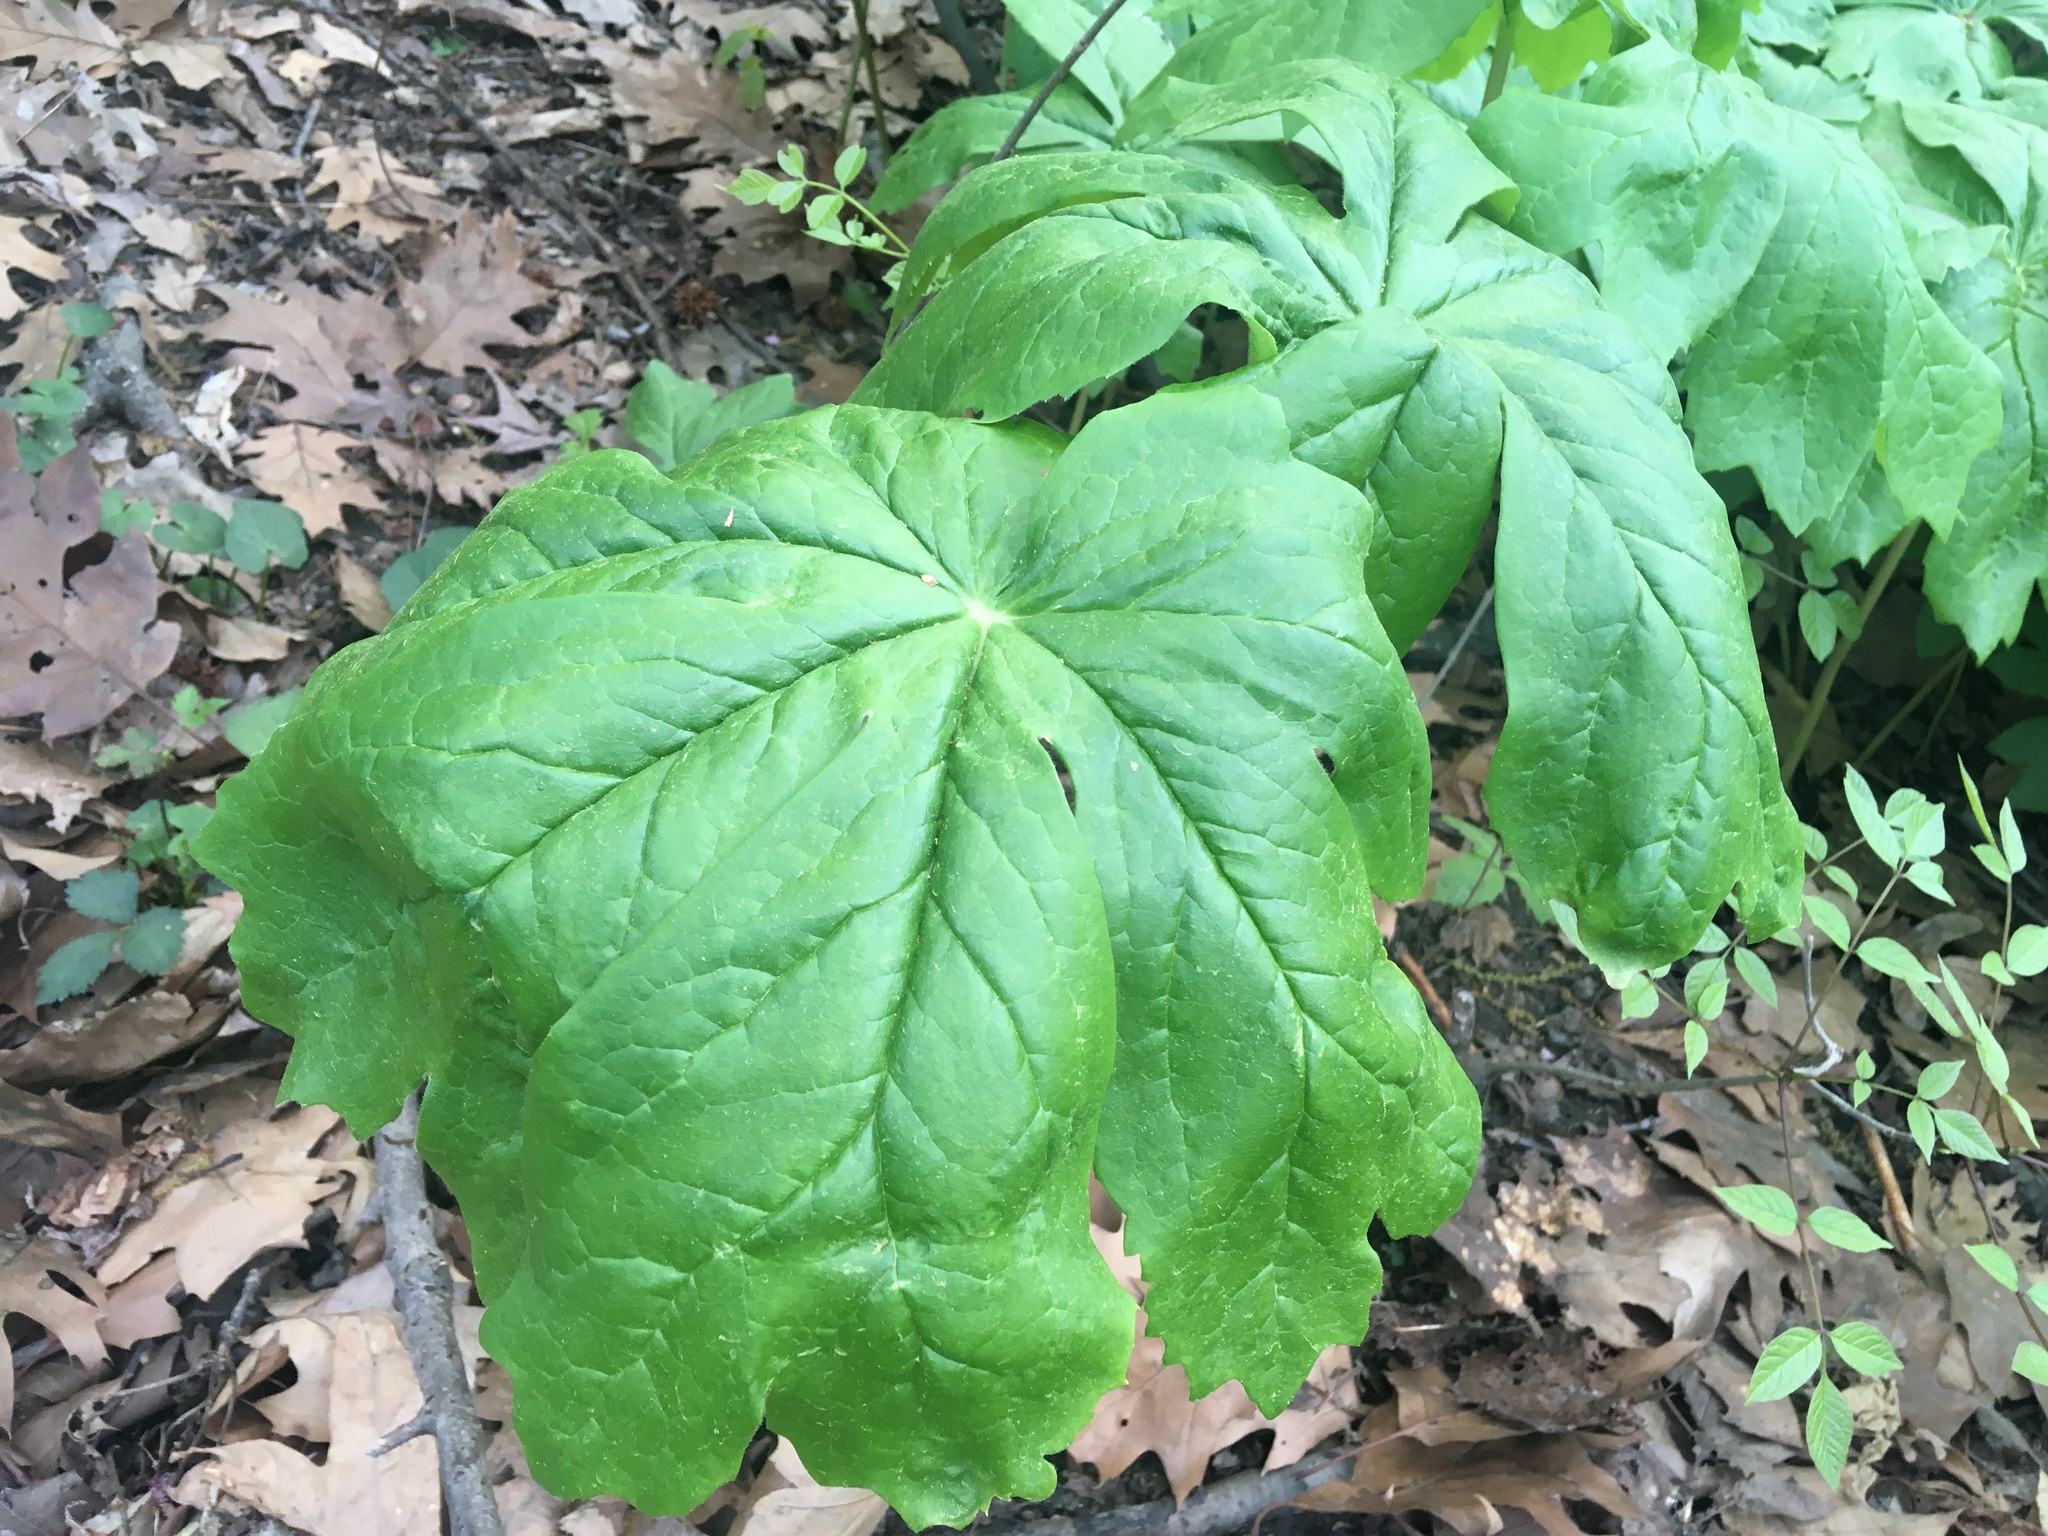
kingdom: Plantae
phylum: Tracheophyta
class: Magnoliopsida
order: Ranunculales
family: Berberidaceae
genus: Podophyllum
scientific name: Podophyllum peltatum
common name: Wild mandrake
